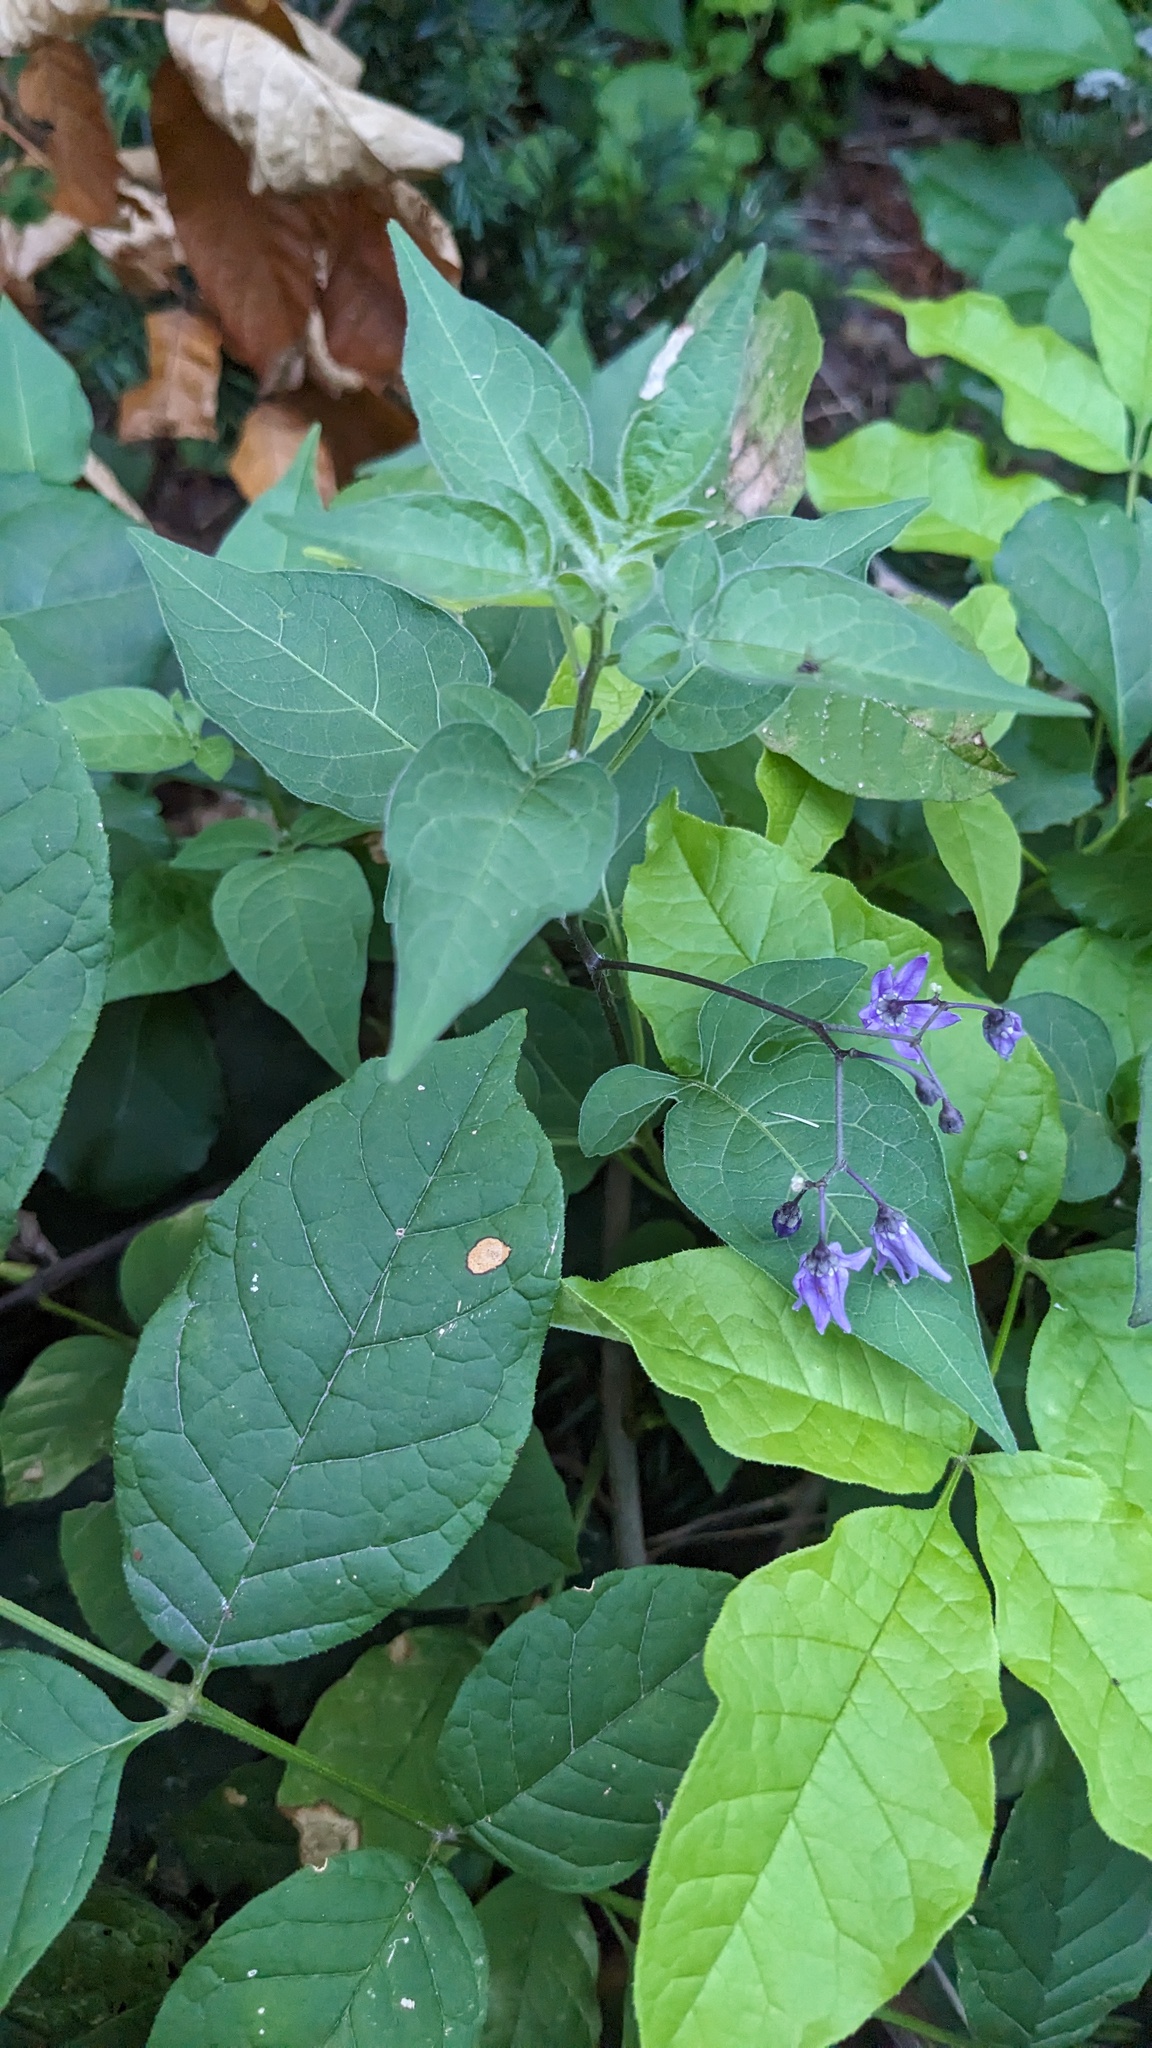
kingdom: Plantae
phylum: Tracheophyta
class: Magnoliopsida
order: Solanales
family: Solanaceae
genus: Solanum
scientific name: Solanum dulcamara
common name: Climbing nightshade
